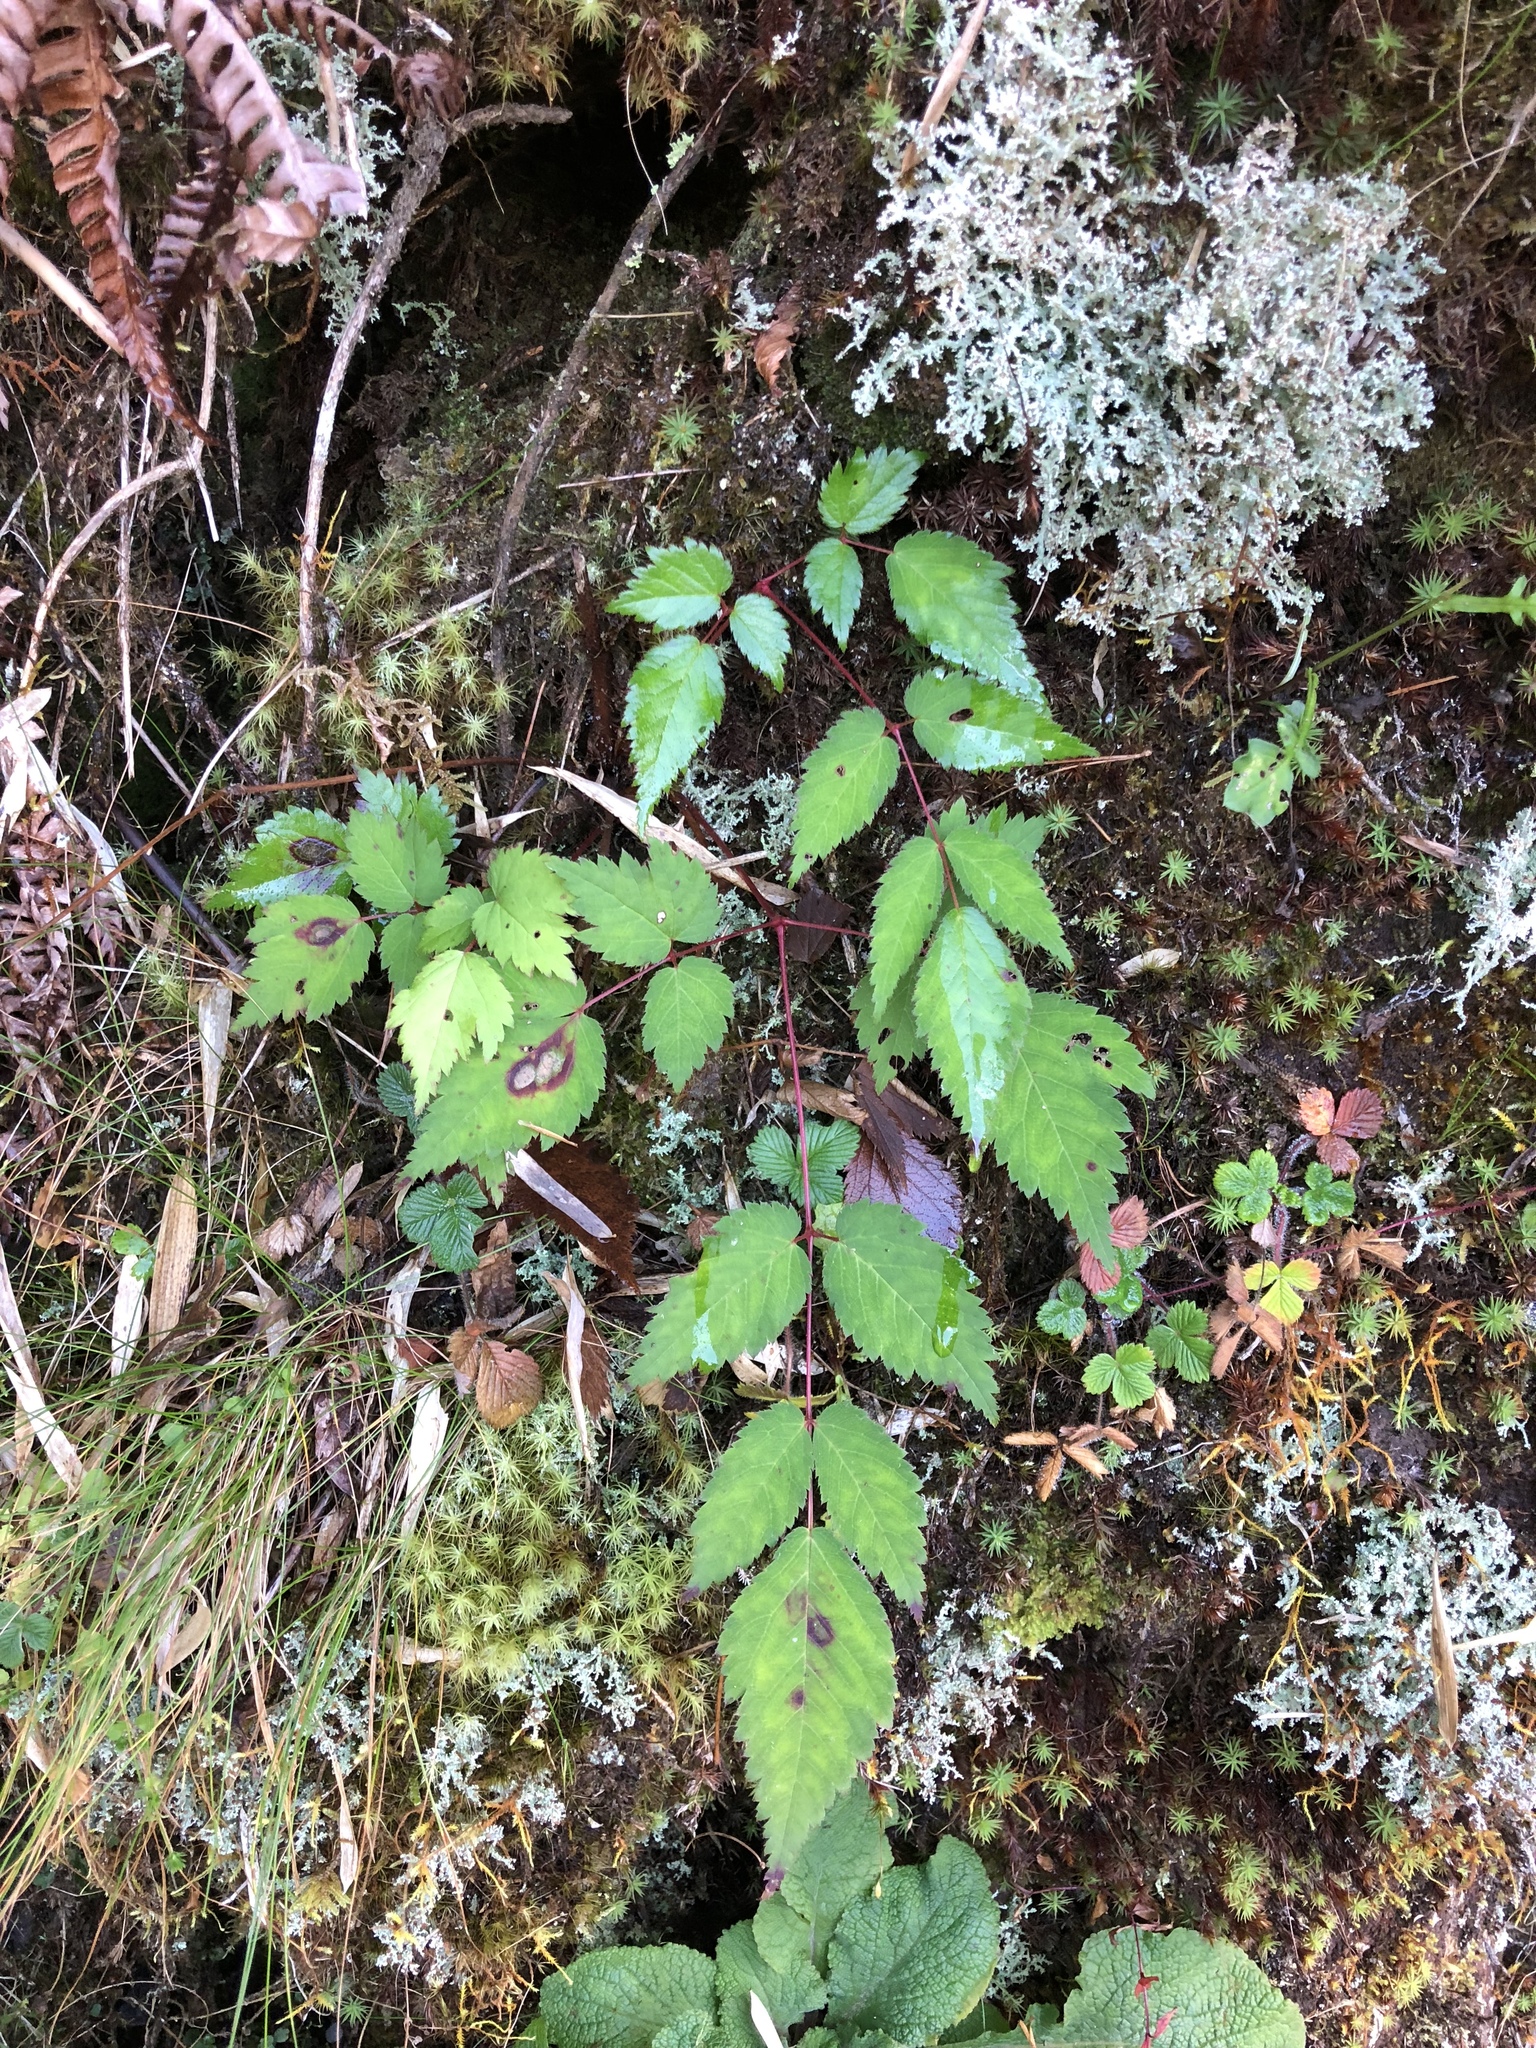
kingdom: Plantae
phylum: Tracheophyta
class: Magnoliopsida
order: Saxifragales
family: Saxifragaceae
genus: Astilbe
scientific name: Astilbe longicarpa
